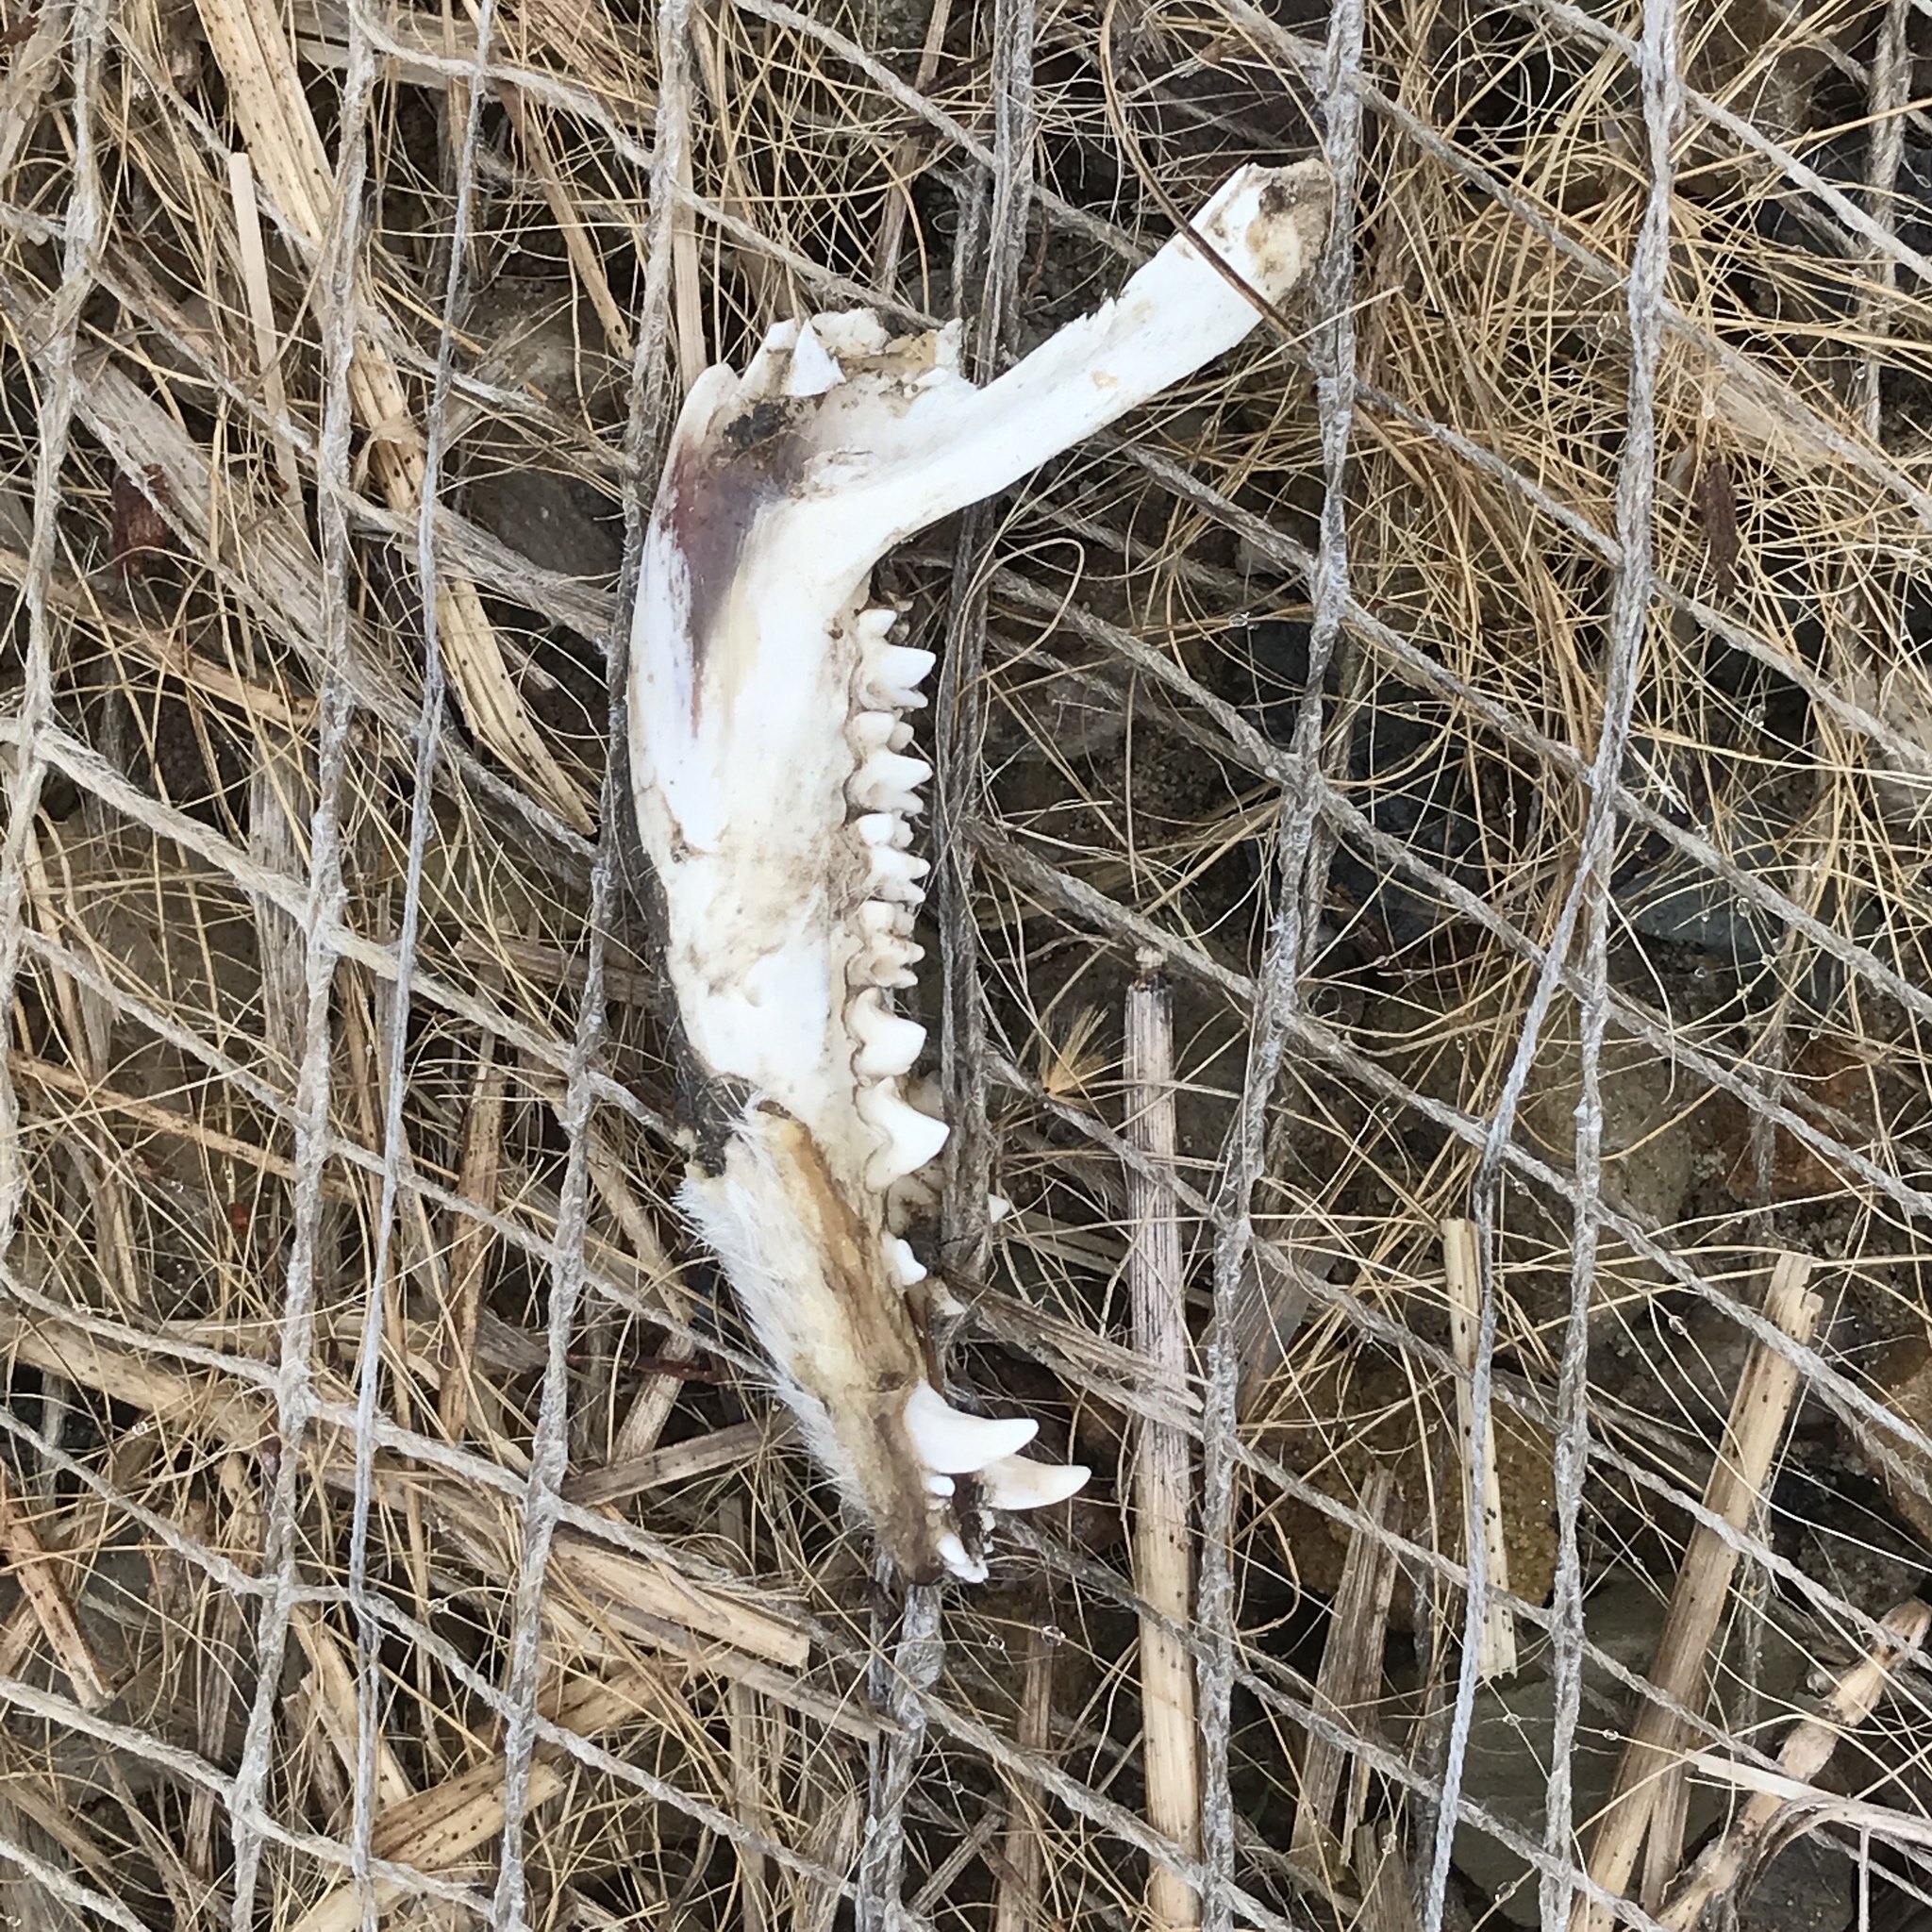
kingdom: Animalia
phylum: Chordata
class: Mammalia
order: Didelphimorphia
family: Didelphidae
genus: Didelphis
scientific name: Didelphis virginiana
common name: Virginia opossum
